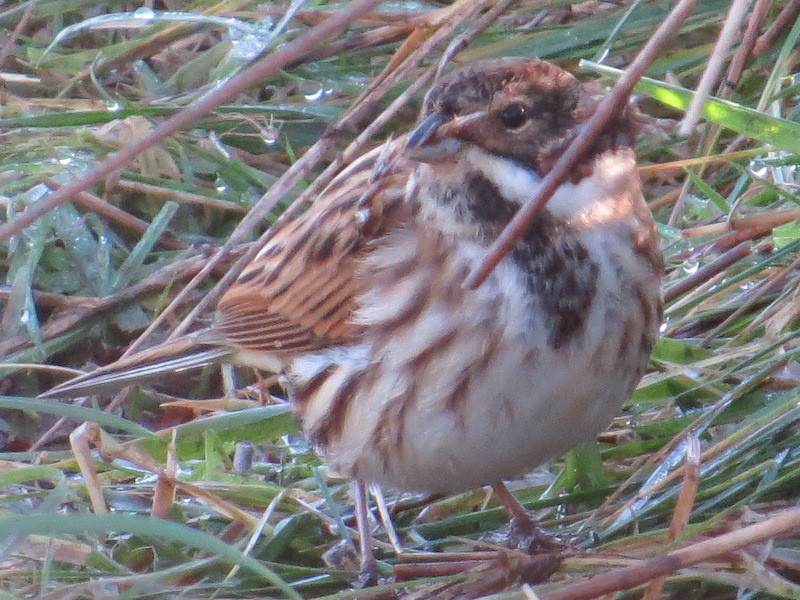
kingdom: Animalia
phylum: Chordata
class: Aves
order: Passeriformes
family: Emberizidae
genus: Emberiza
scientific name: Emberiza schoeniclus
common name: Reed bunting
